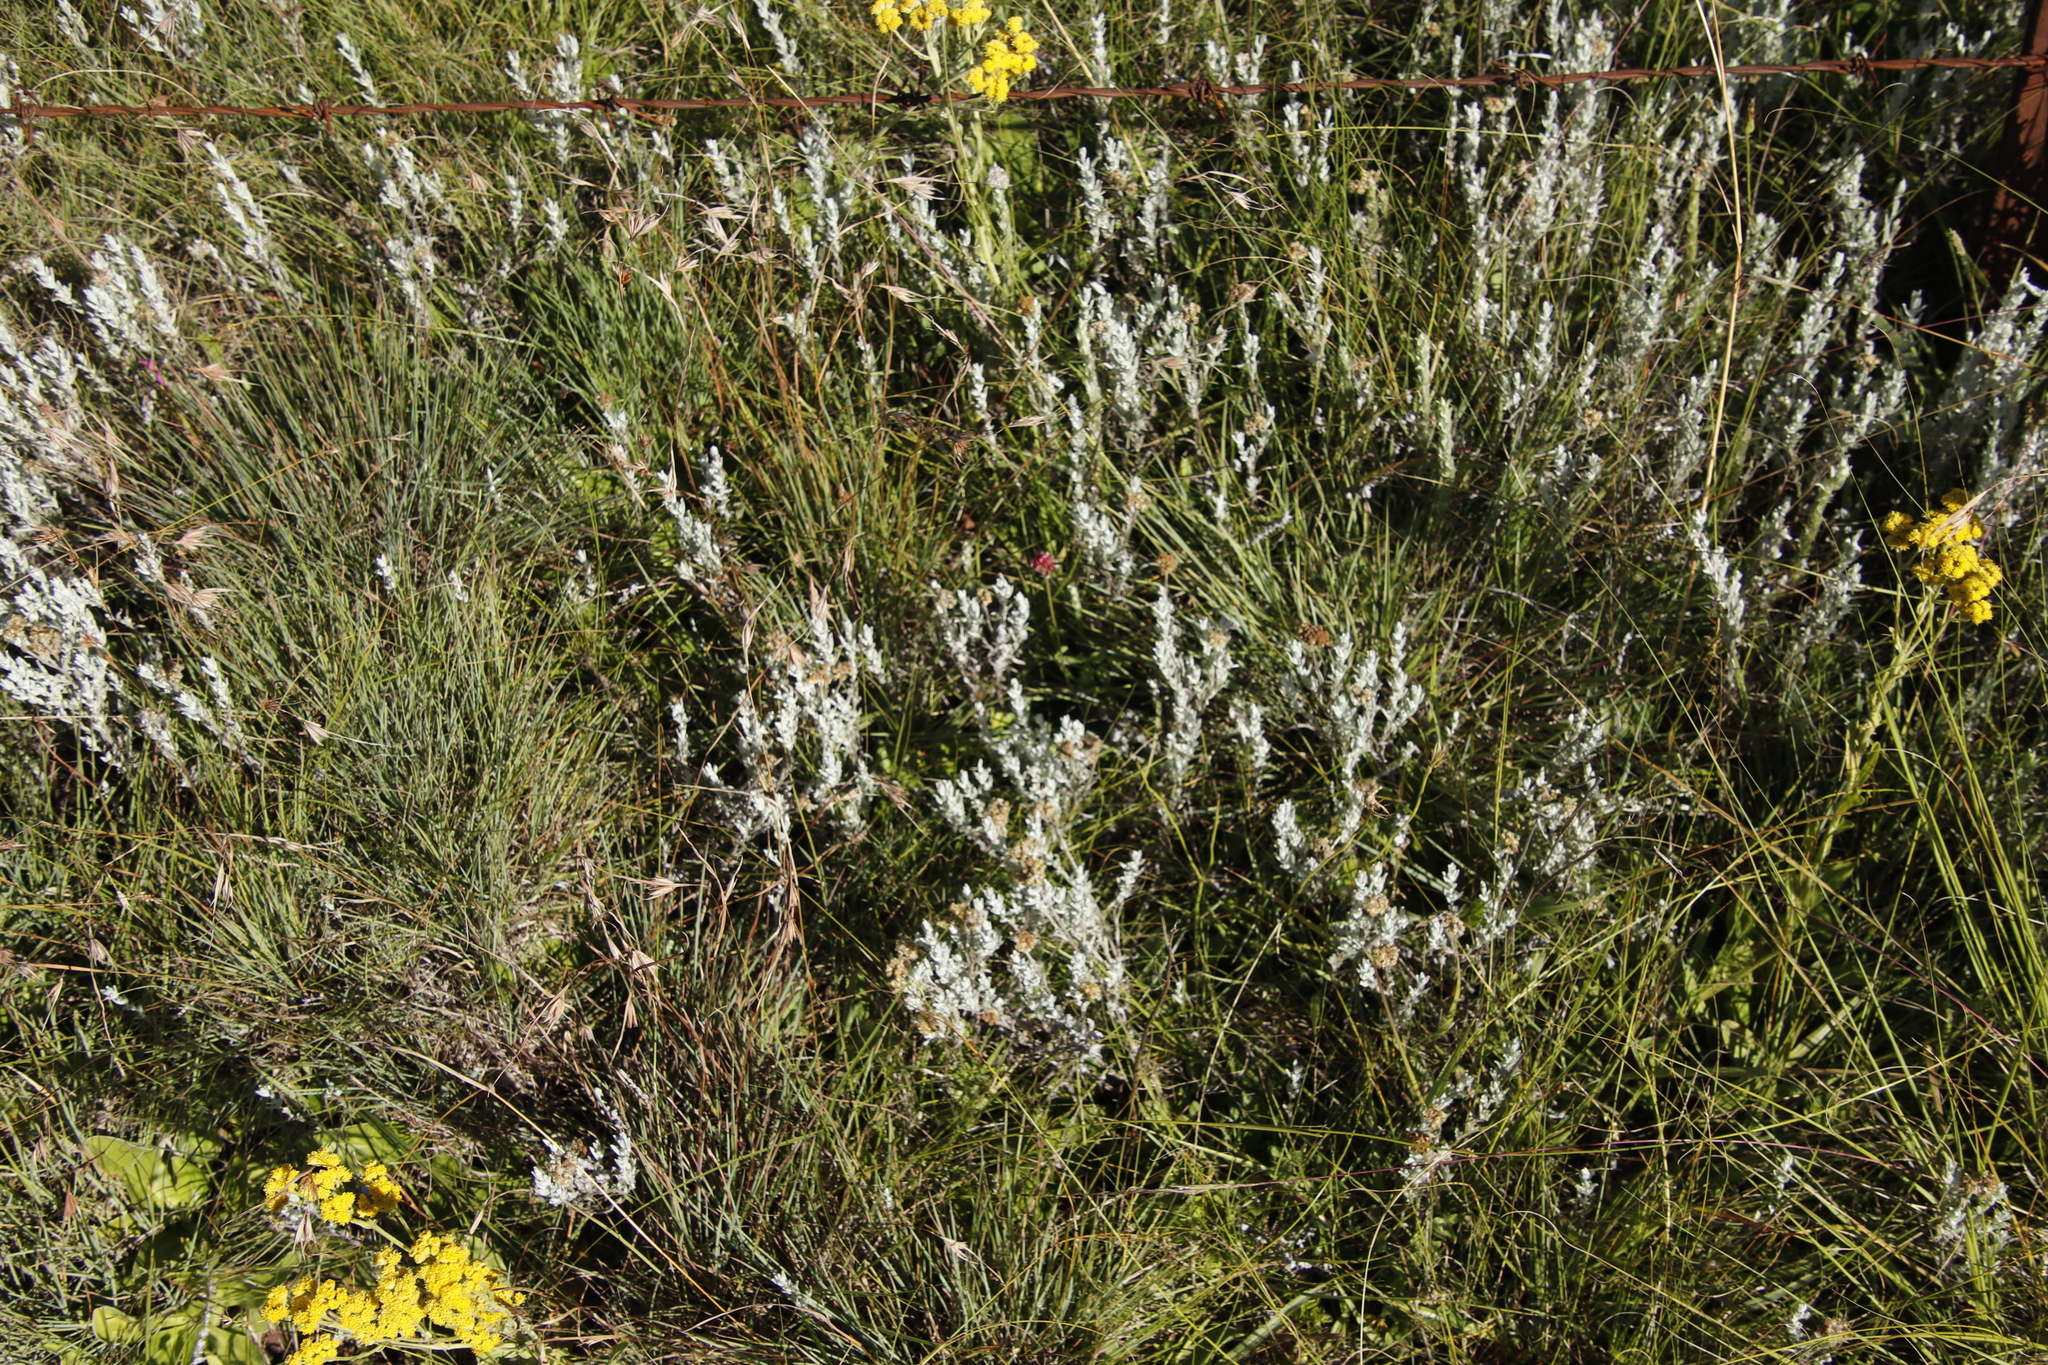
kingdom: Plantae
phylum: Tracheophyta
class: Magnoliopsida
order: Fabales
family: Fabaceae
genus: Trifolium
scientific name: Trifolium africanum
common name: Erasmus clover
